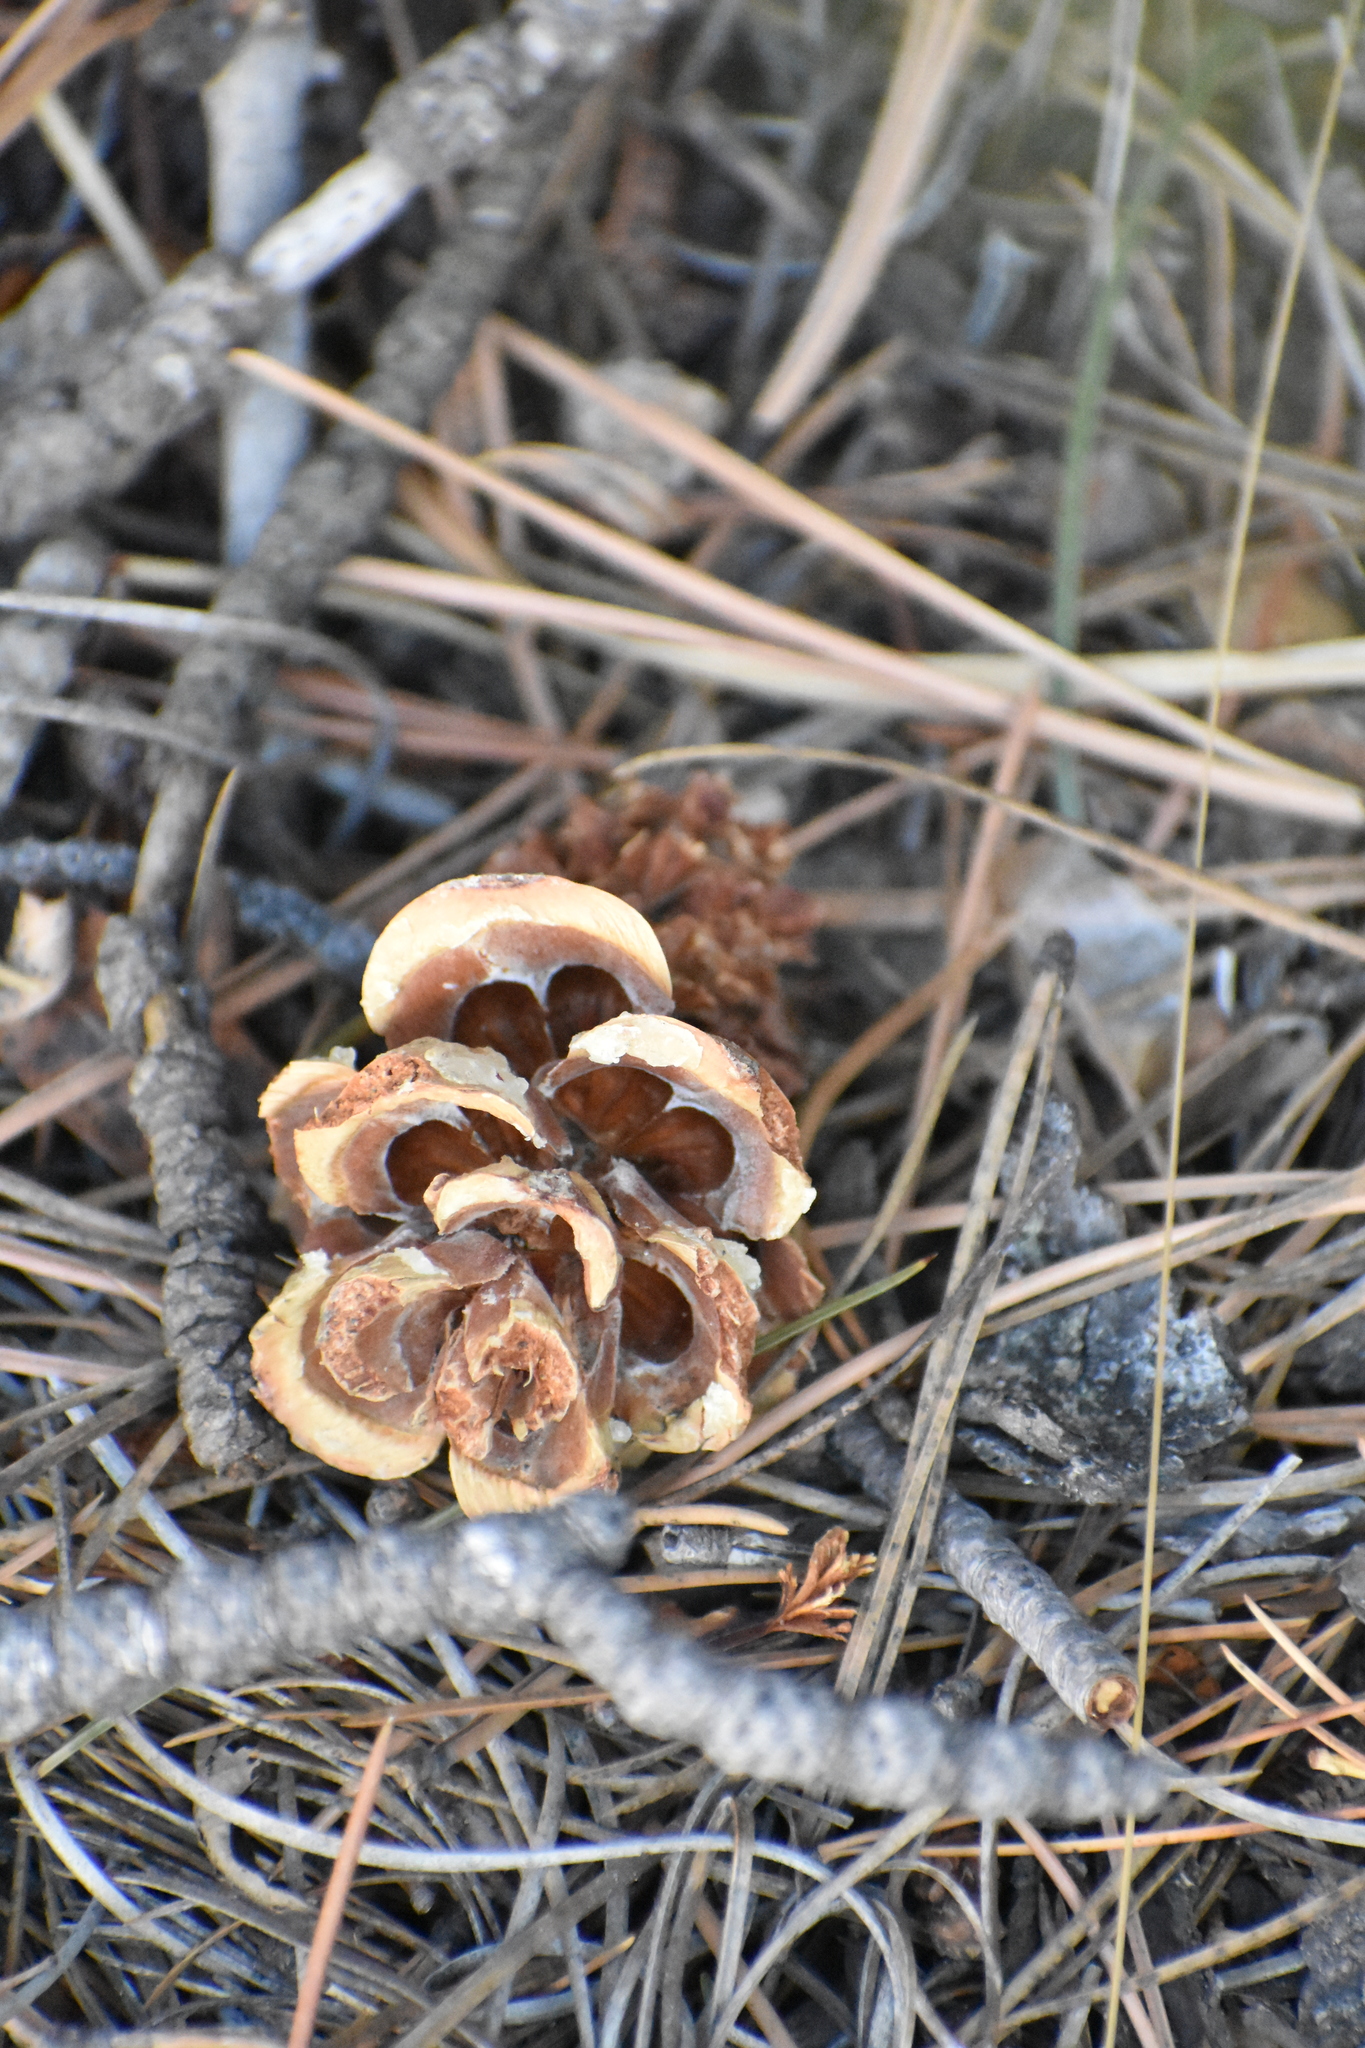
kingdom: Plantae
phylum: Tracheophyta
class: Pinopsida
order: Pinales
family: Pinaceae
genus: Pinus
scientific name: Pinus edulis
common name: Colorado pinyon
